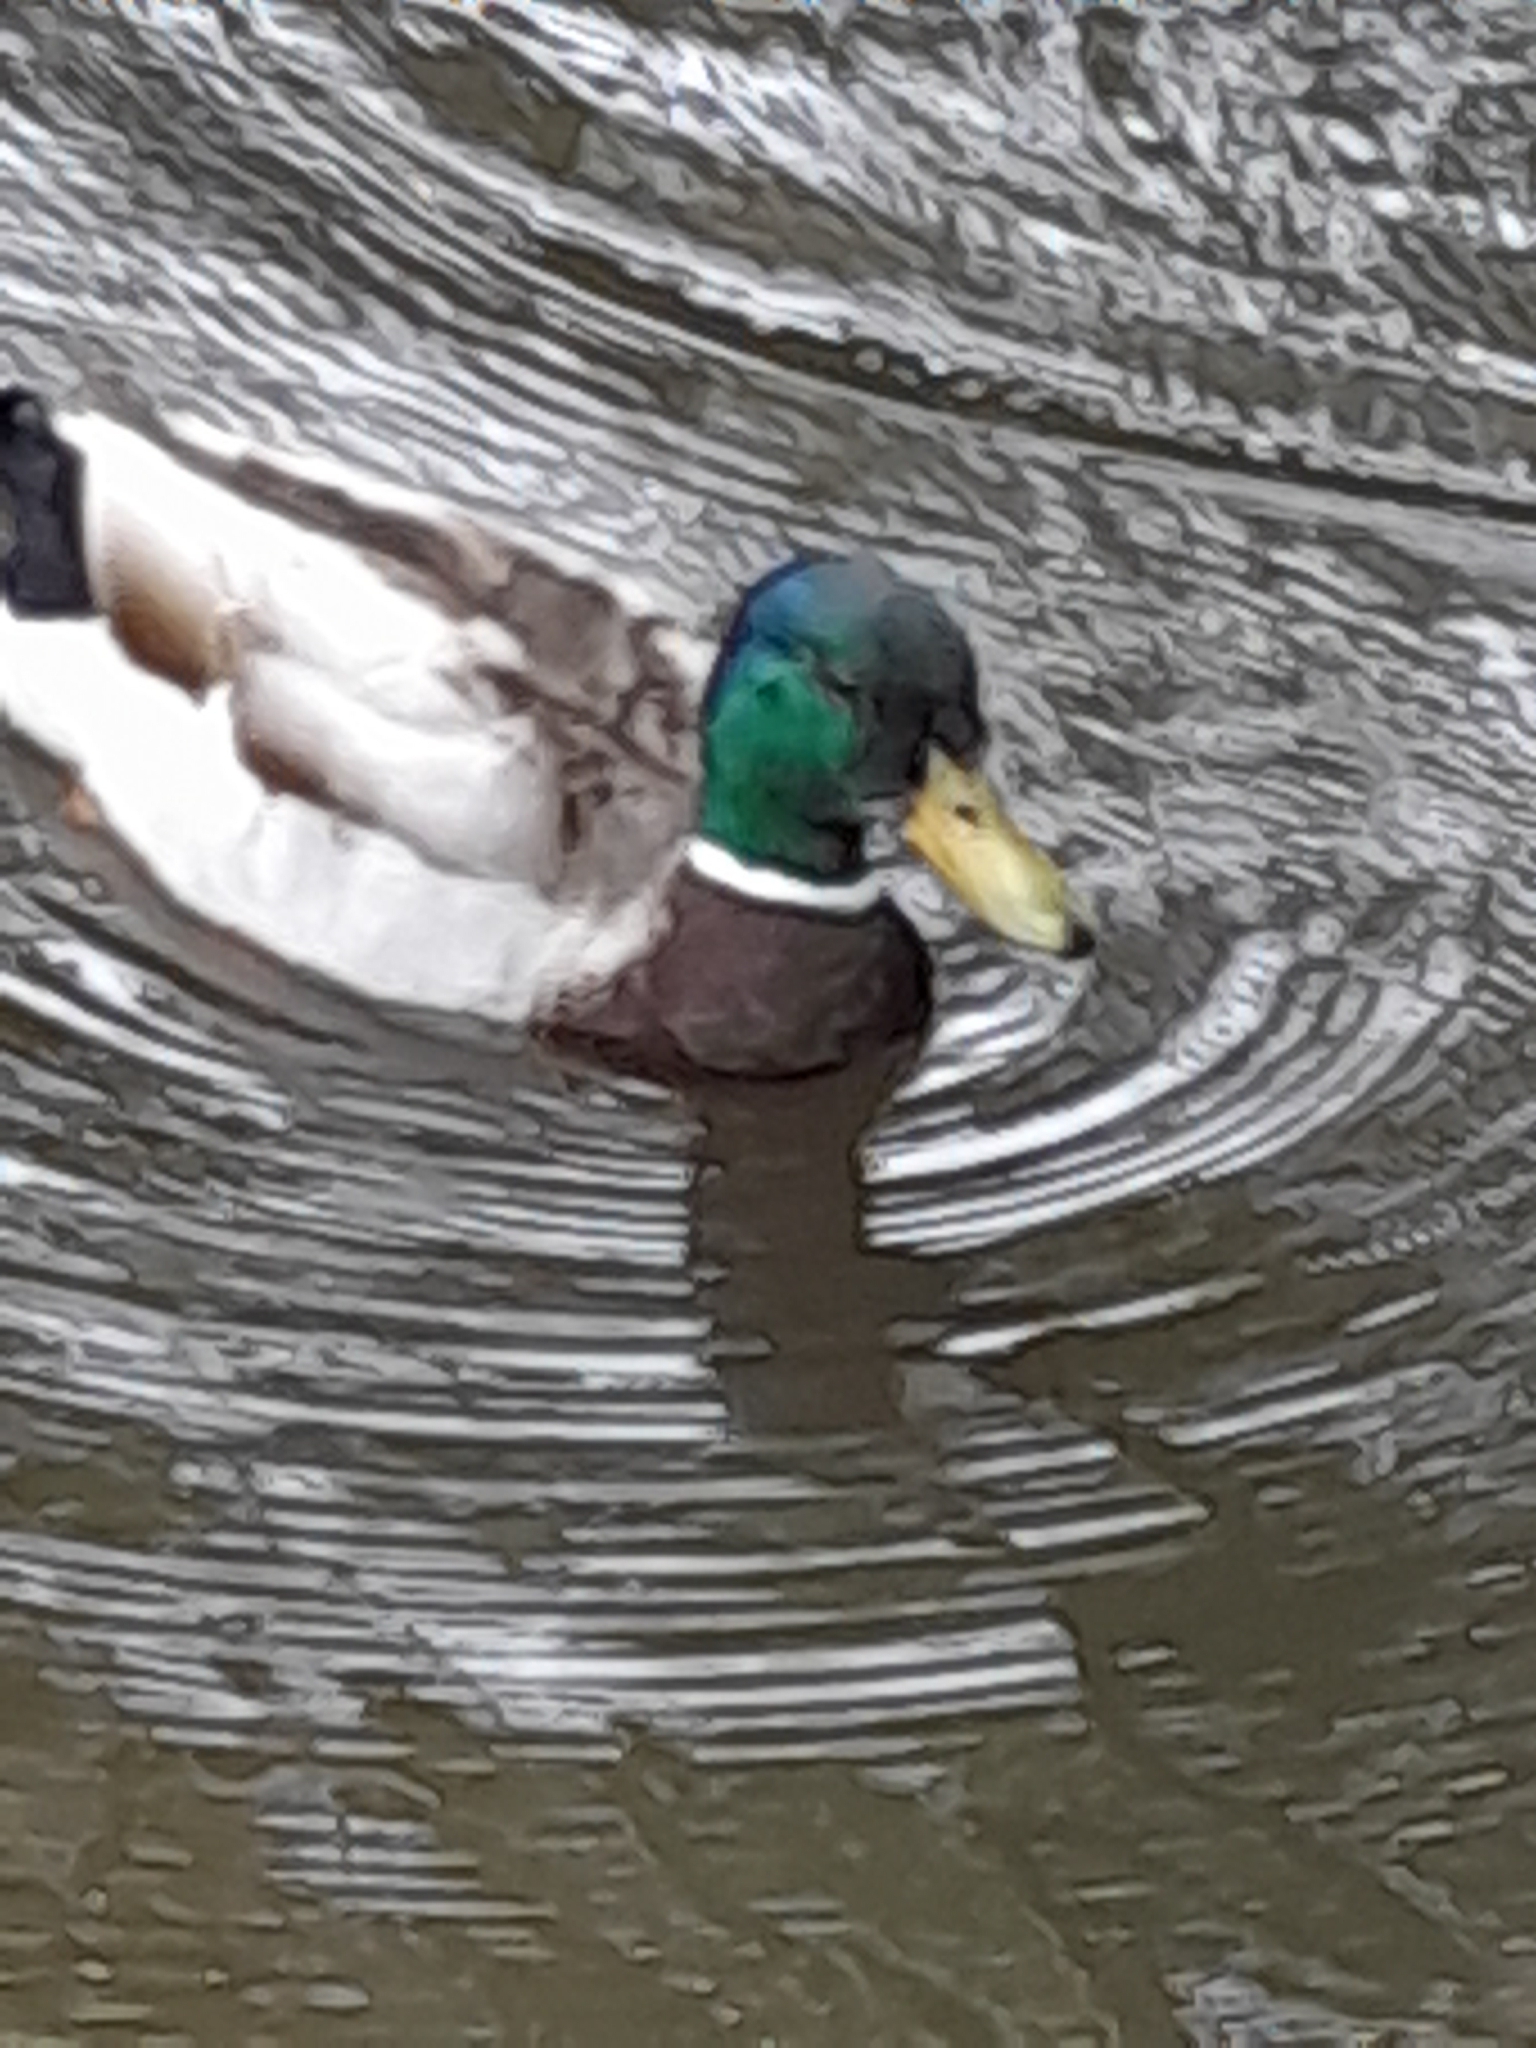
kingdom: Animalia
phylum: Chordata
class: Aves
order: Anseriformes
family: Anatidae
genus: Anas
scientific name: Anas platyrhynchos
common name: Mallard
